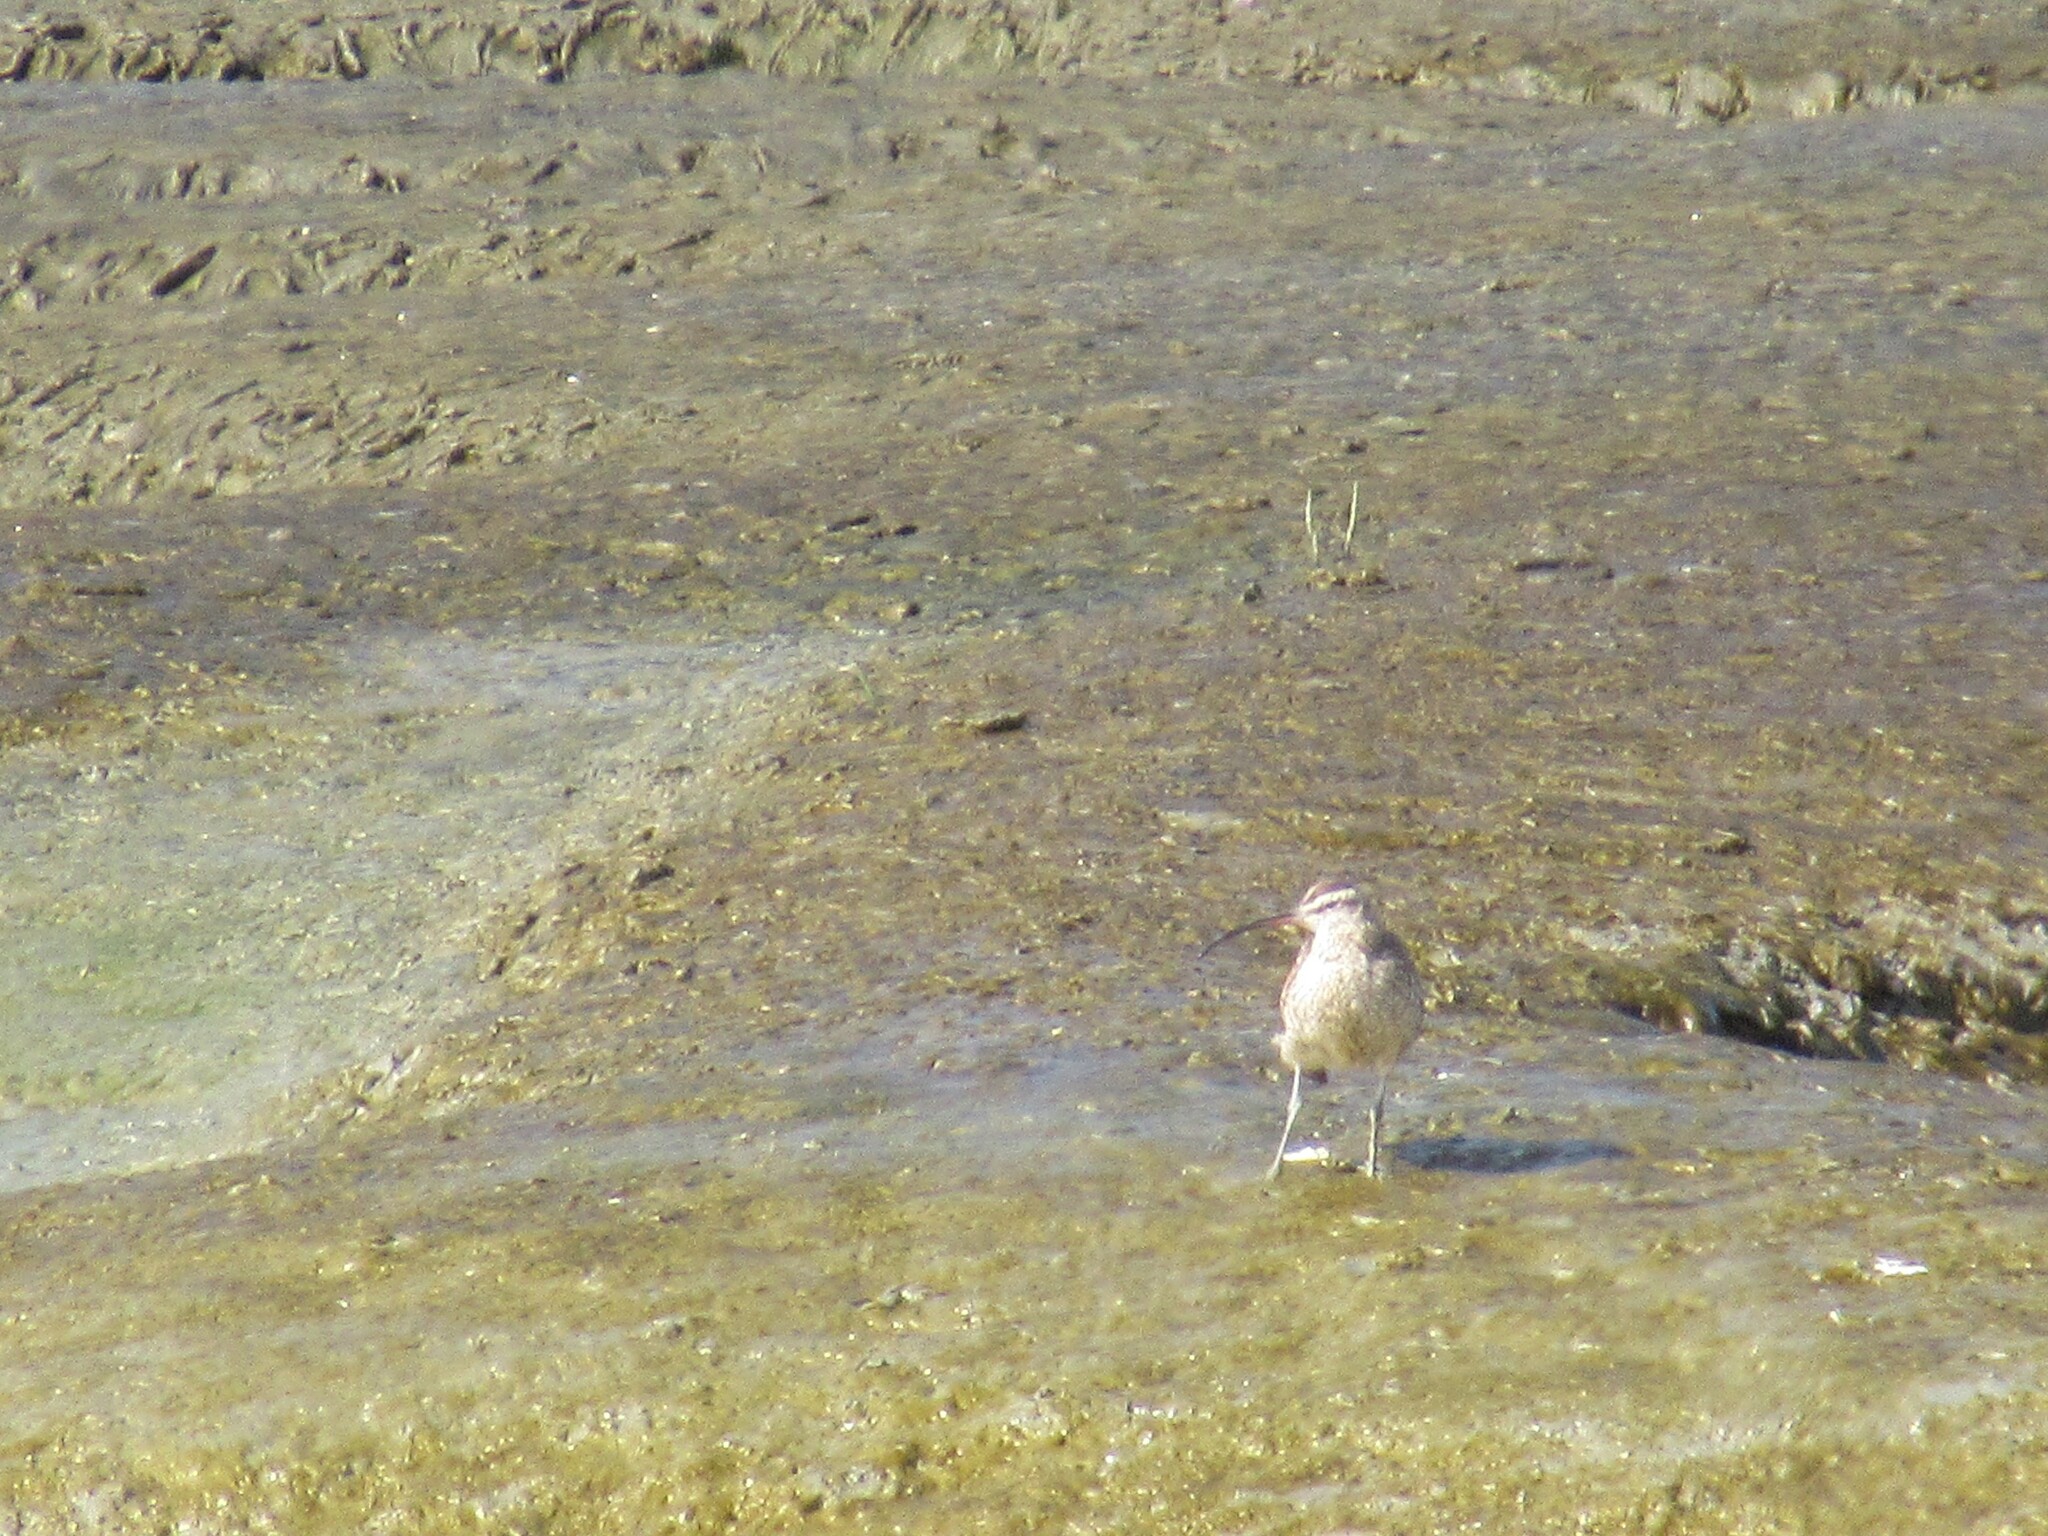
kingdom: Animalia
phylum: Chordata
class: Aves
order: Charadriiformes
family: Scolopacidae
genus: Numenius
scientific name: Numenius phaeopus
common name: Whimbrel
